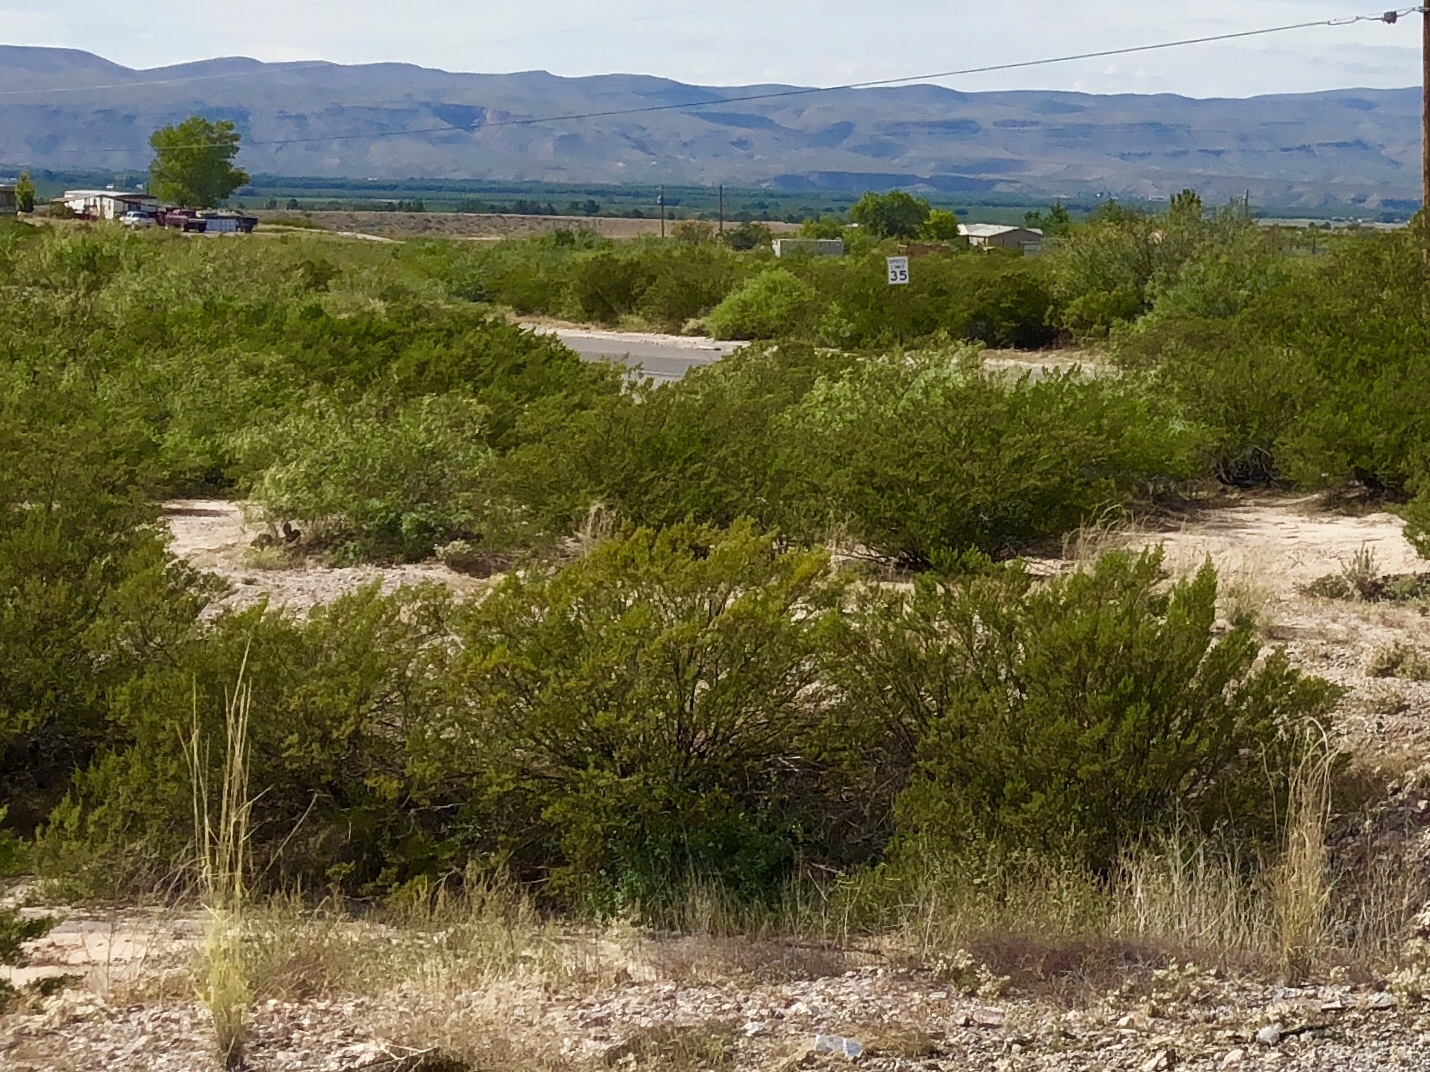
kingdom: Plantae
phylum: Tracheophyta
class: Magnoliopsida
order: Zygophyllales
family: Zygophyllaceae
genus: Larrea
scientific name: Larrea tridentata
